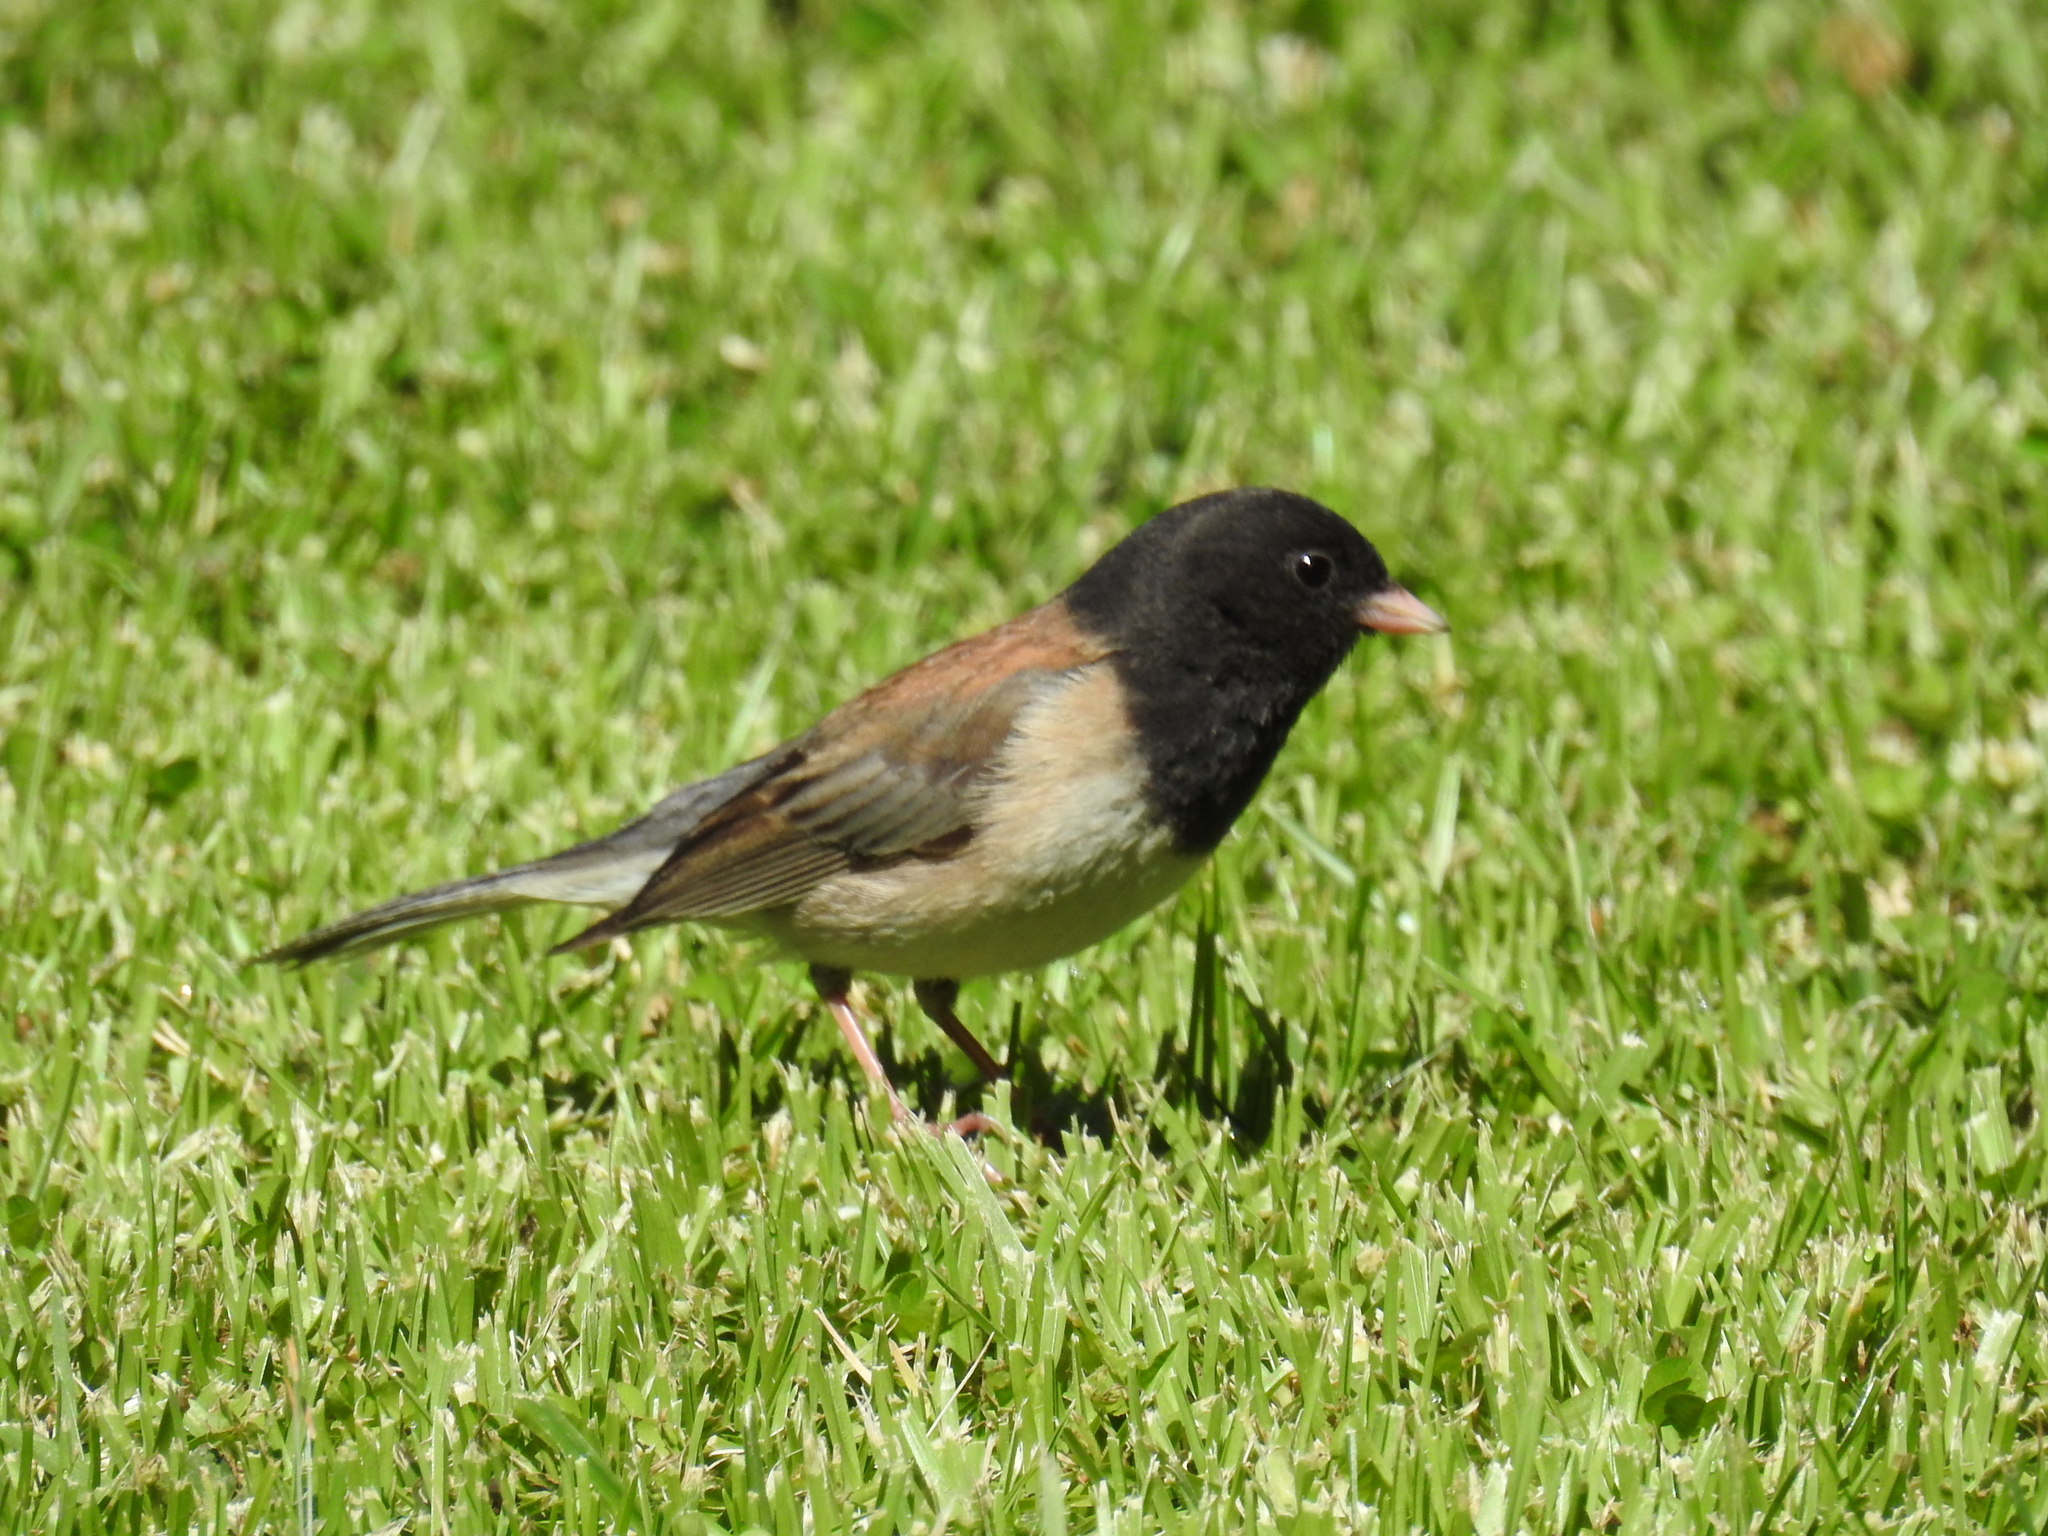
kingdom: Animalia
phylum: Chordata
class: Aves
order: Passeriformes
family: Passerellidae
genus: Junco
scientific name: Junco hyemalis
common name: Dark-eyed junco
